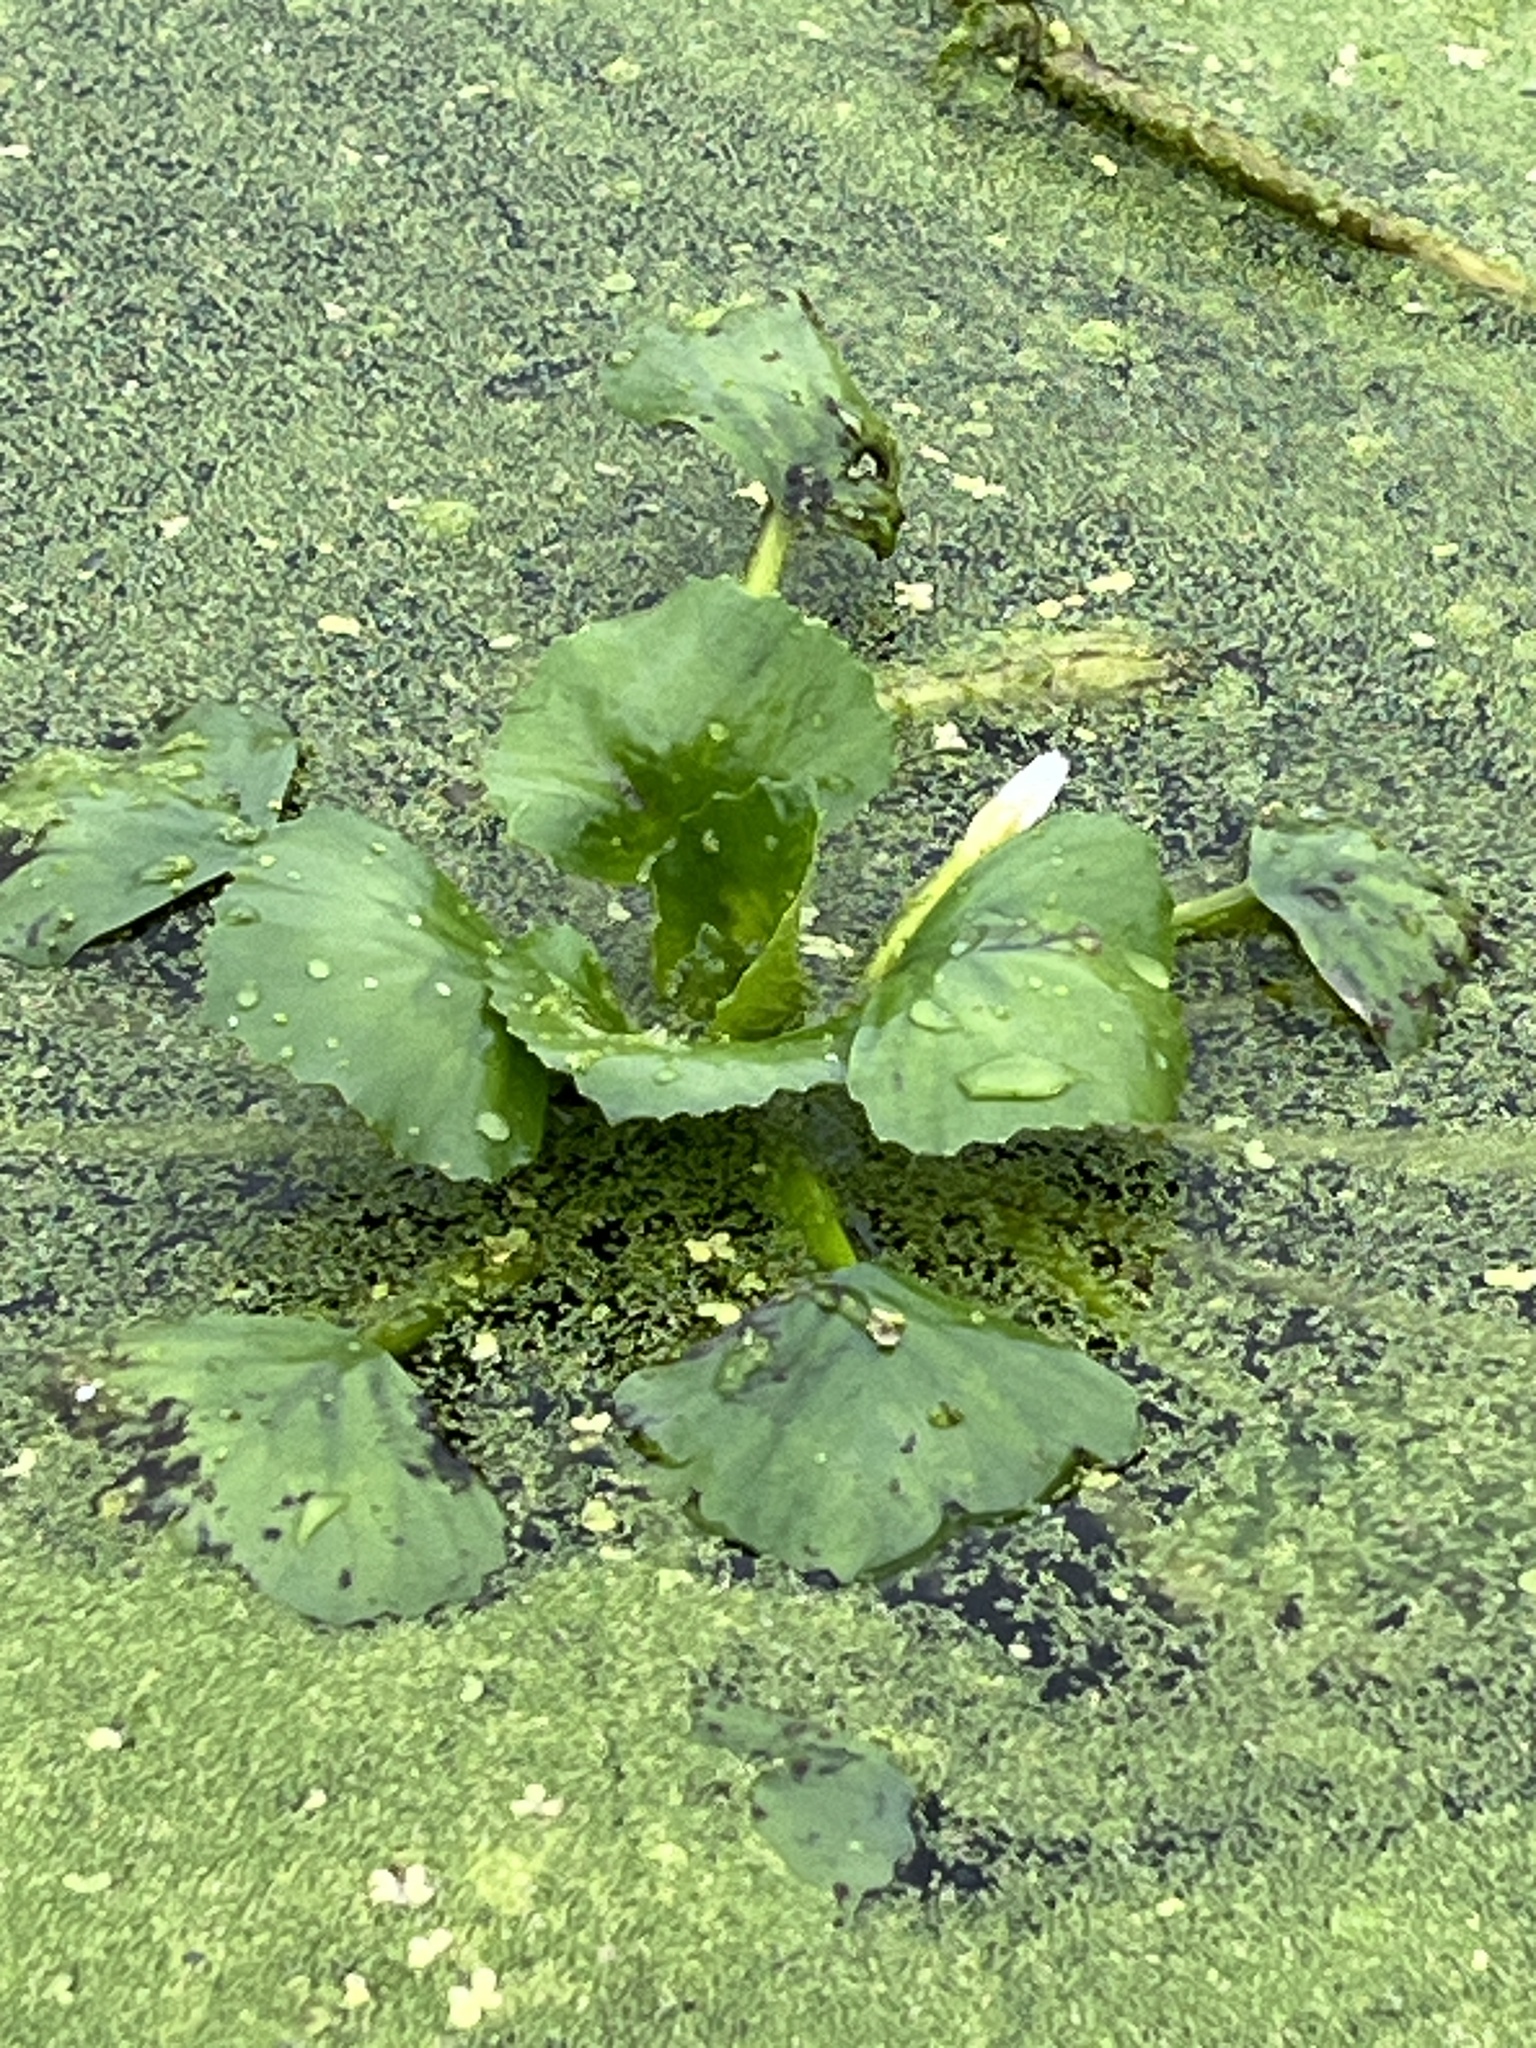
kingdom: Plantae
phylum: Tracheophyta
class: Magnoliopsida
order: Myrtales
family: Lythraceae
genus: Trapa
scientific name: Trapa natans
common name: Water chestnut
